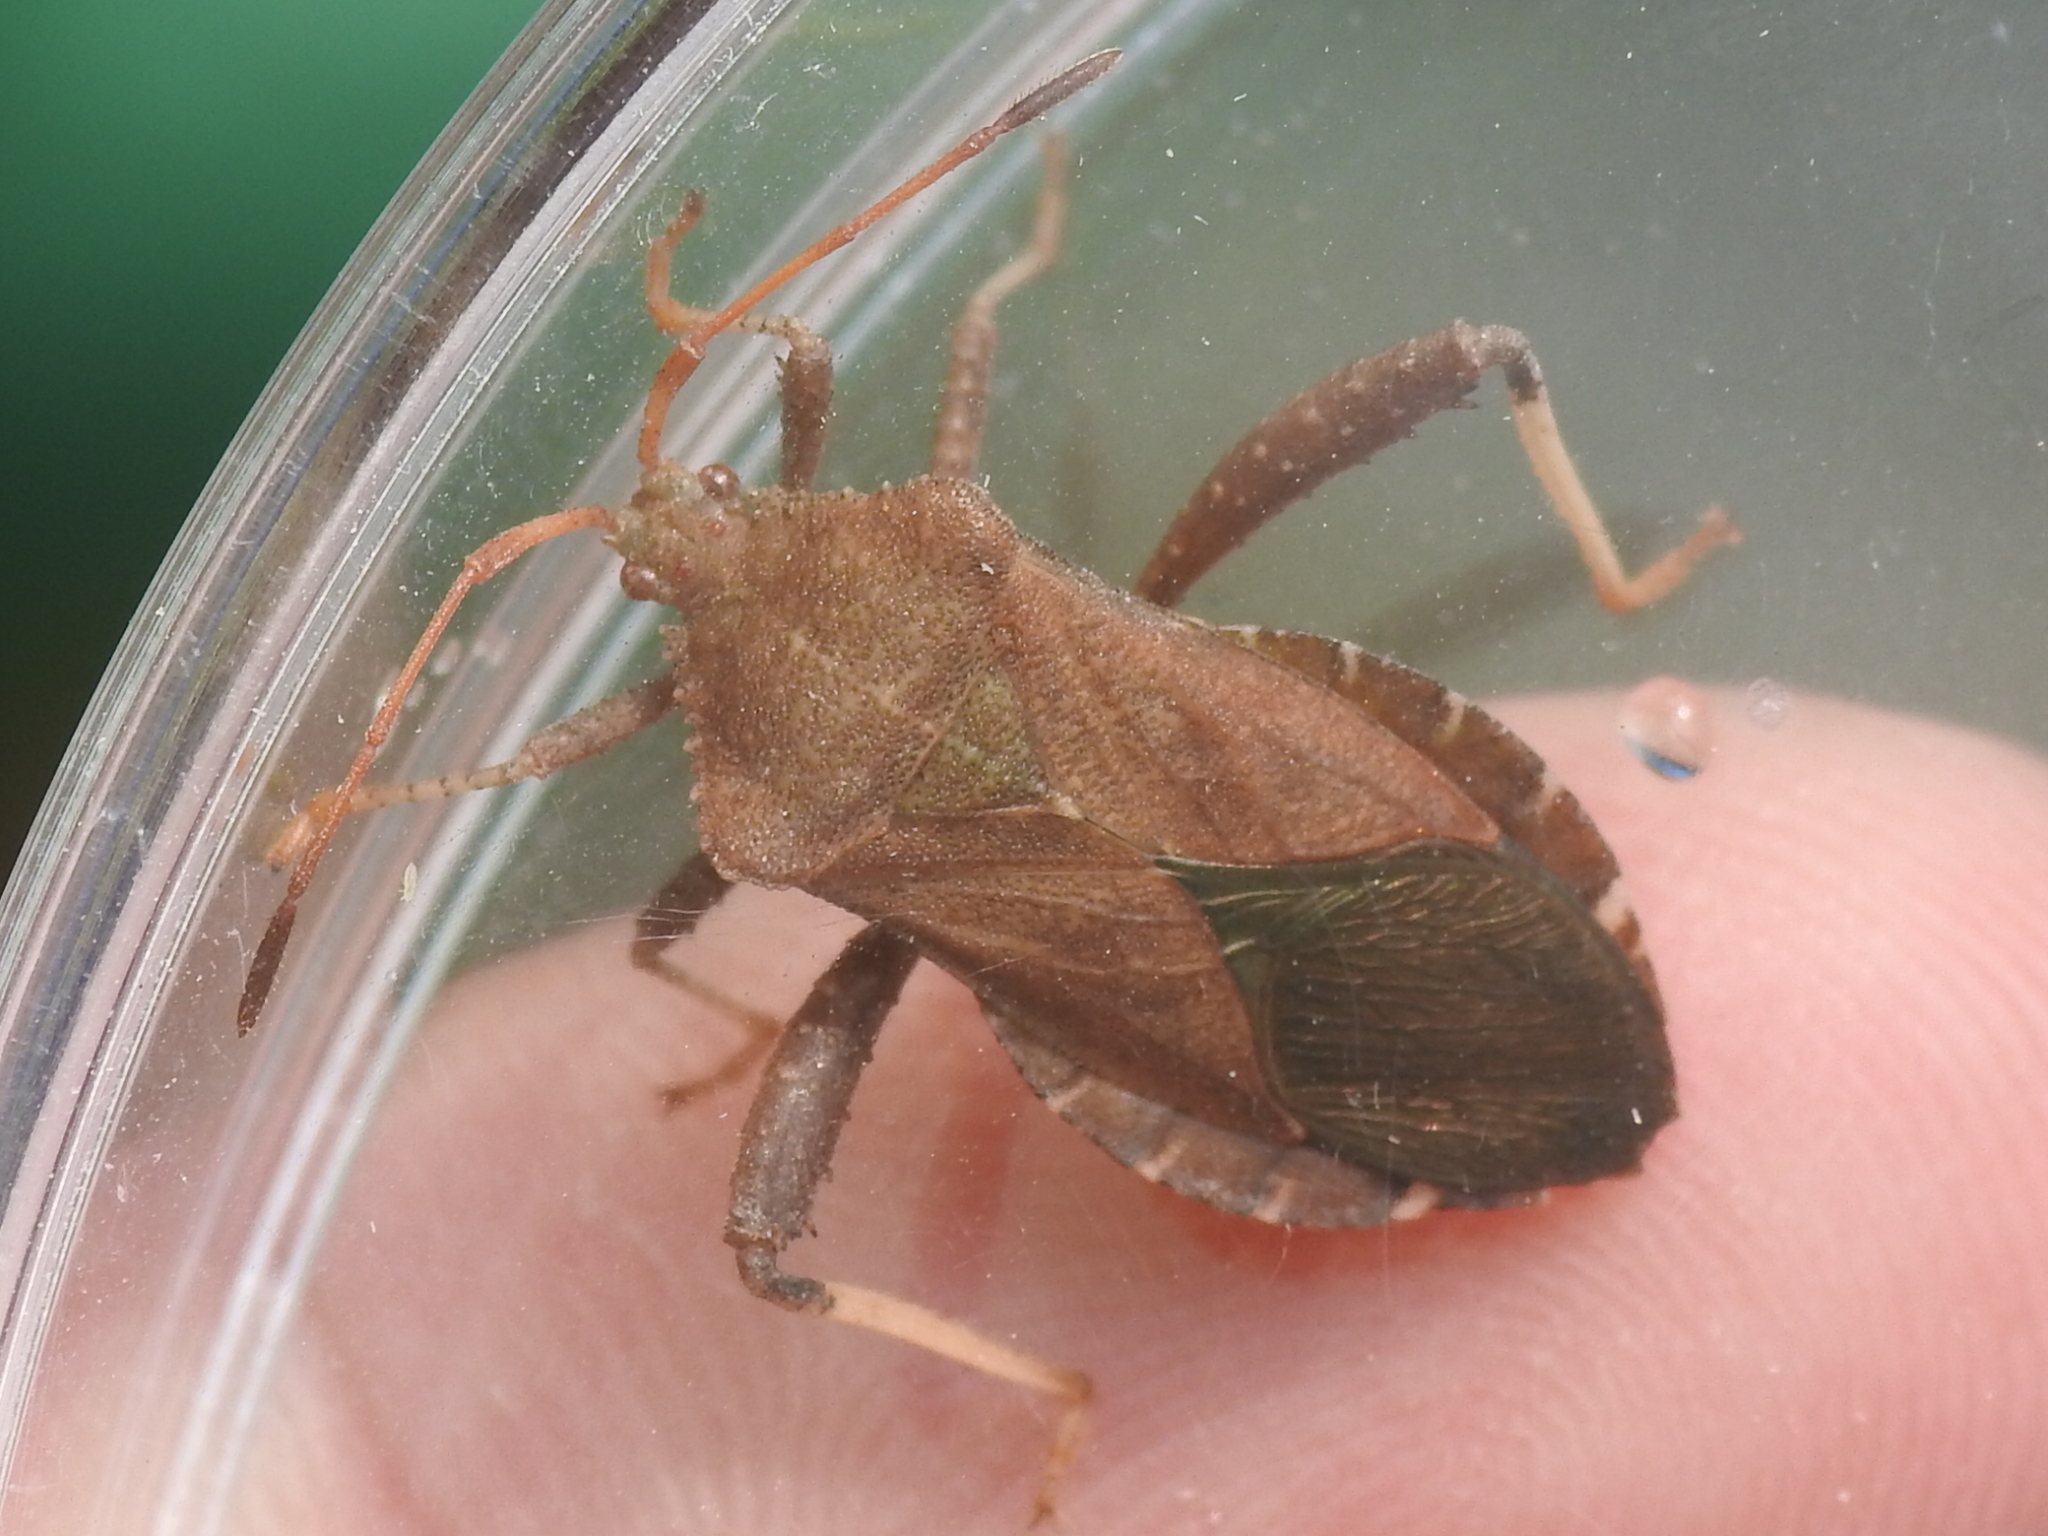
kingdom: Animalia
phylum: Arthropoda
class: Insecta
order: Hemiptera
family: Coreidae
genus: Euthochtha
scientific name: Euthochtha galeator
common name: Helmeted squash bug
